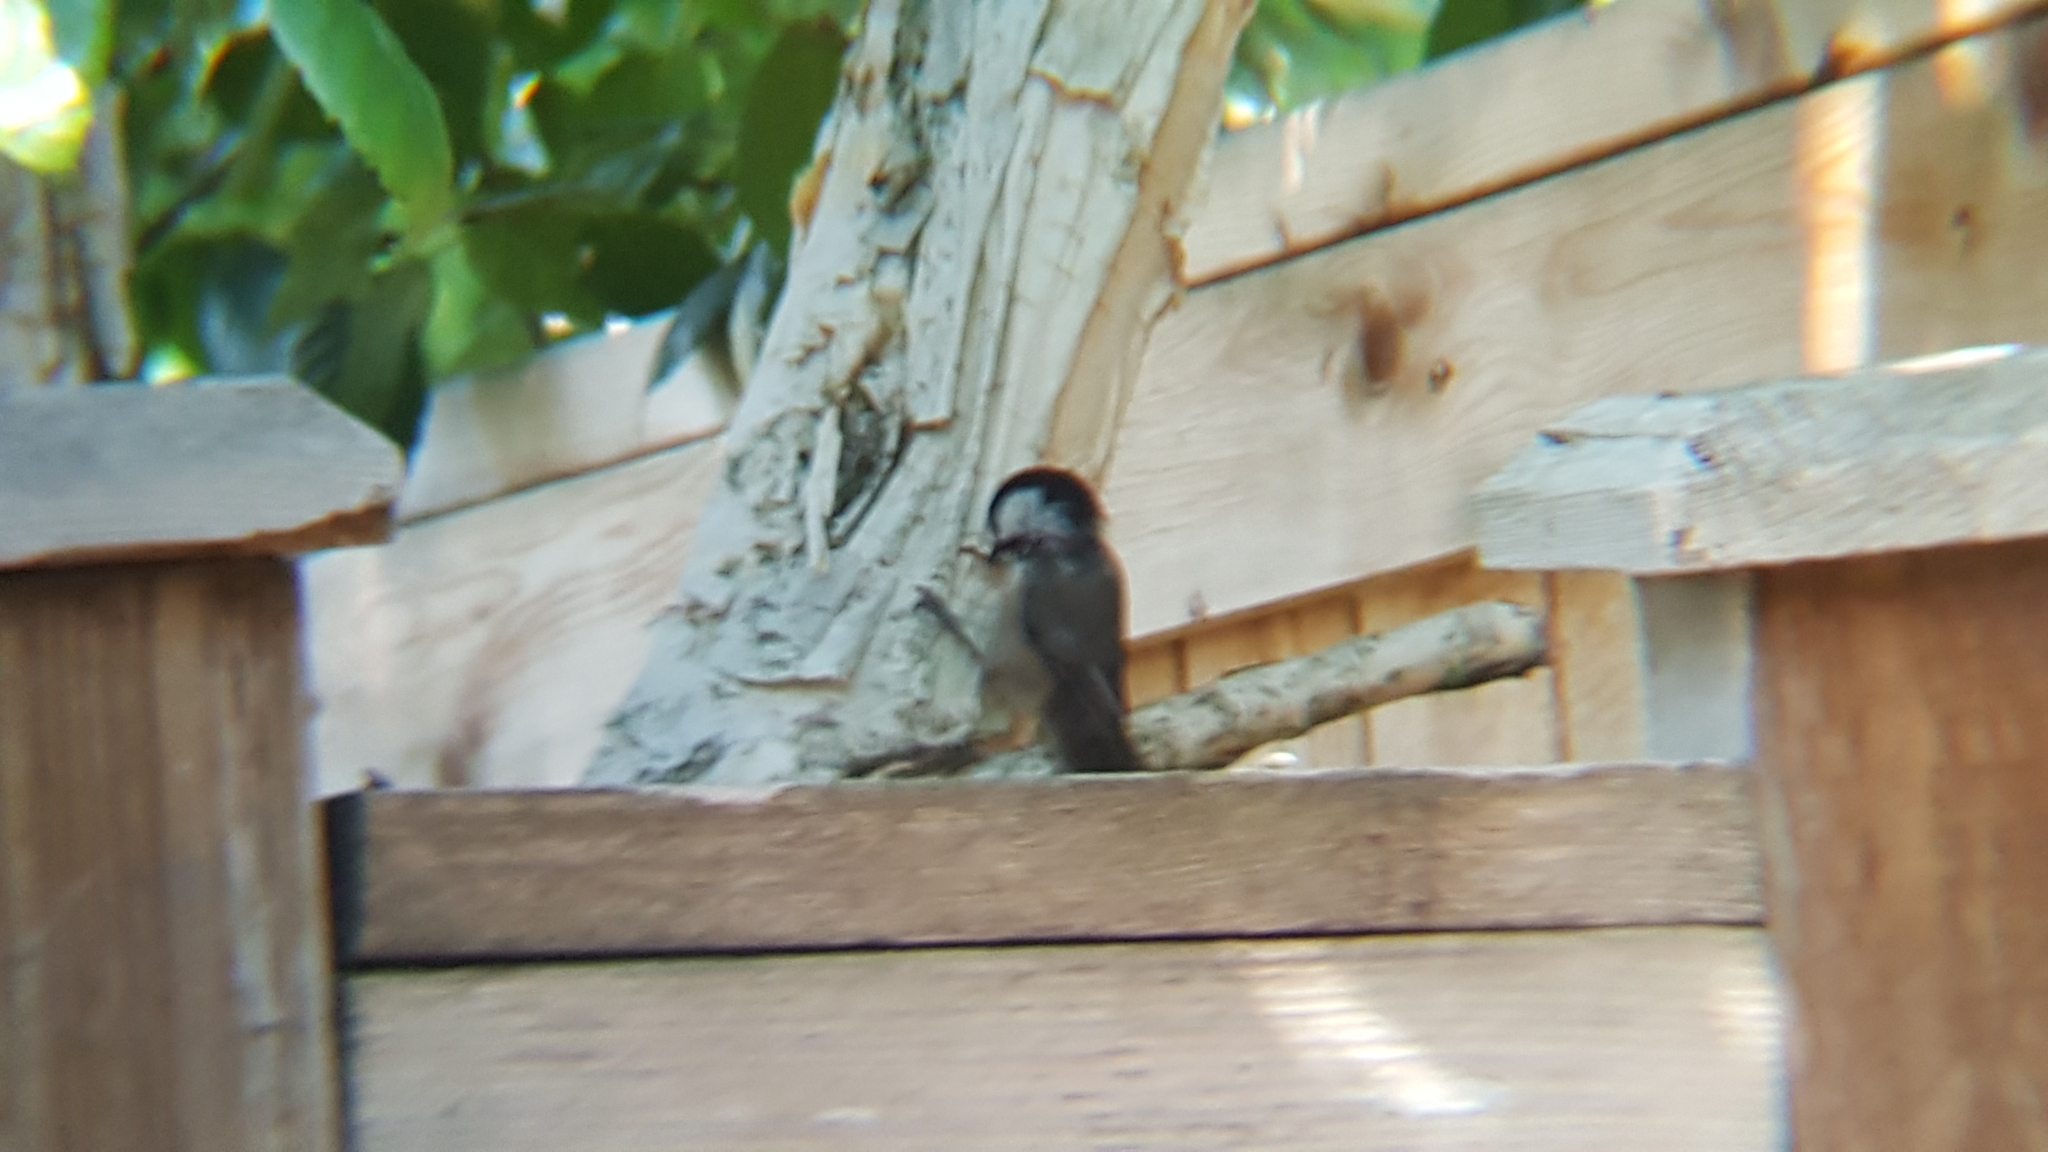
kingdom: Animalia
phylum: Chordata
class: Aves
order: Passeriformes
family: Paridae
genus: Poecile
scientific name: Poecile atricapillus
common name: Black-capped chickadee
